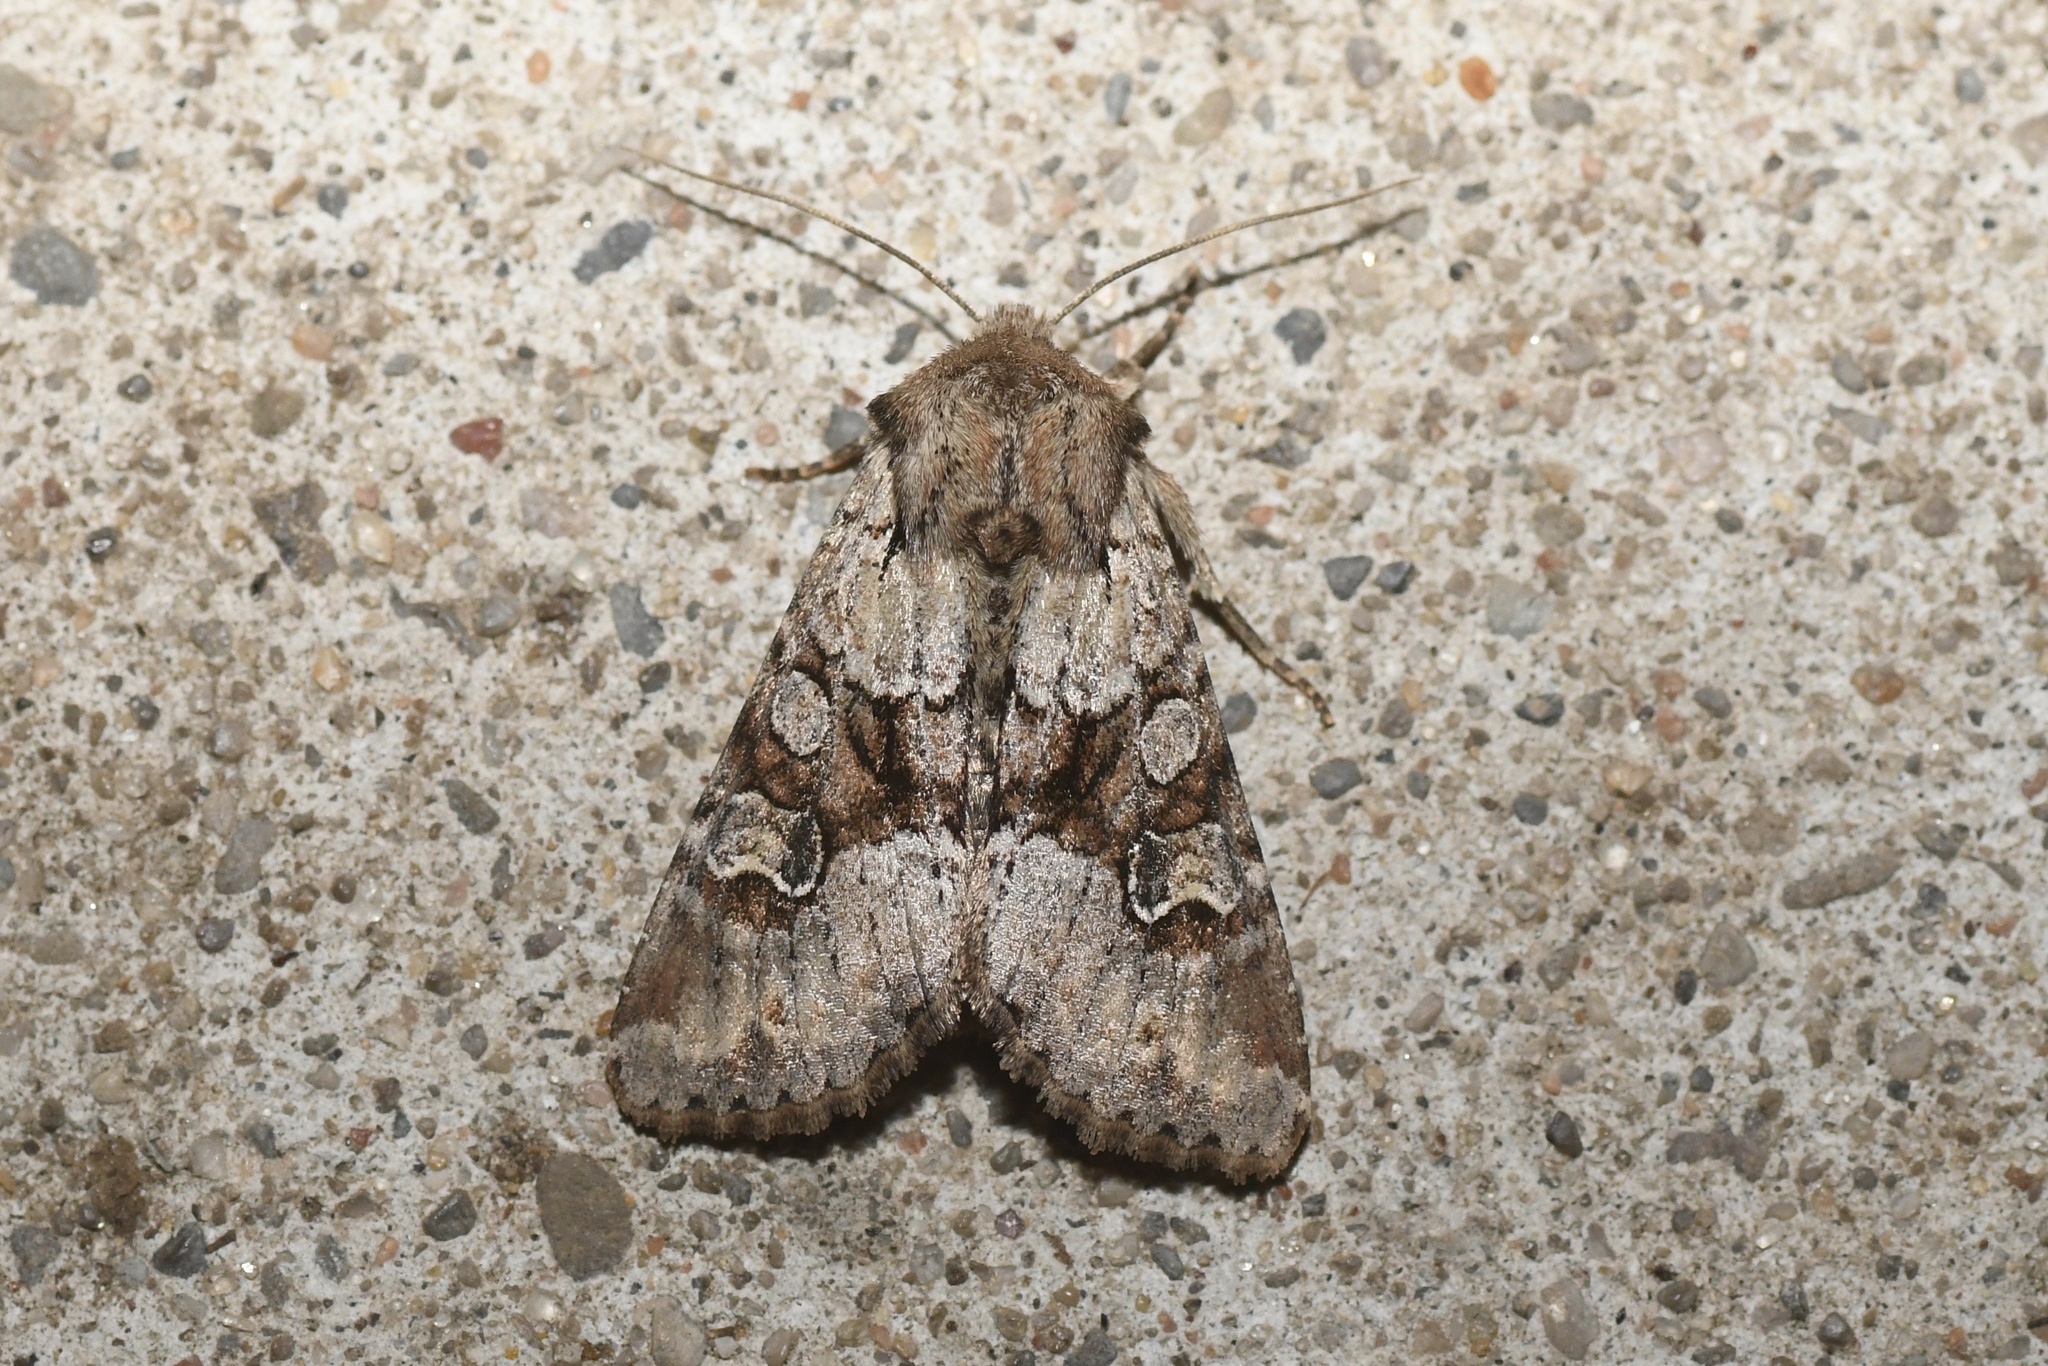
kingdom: Animalia
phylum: Arthropoda
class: Insecta
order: Lepidoptera
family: Noctuidae
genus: Apamea
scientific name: Apamea sordens
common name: Rustic shoulder-knot
